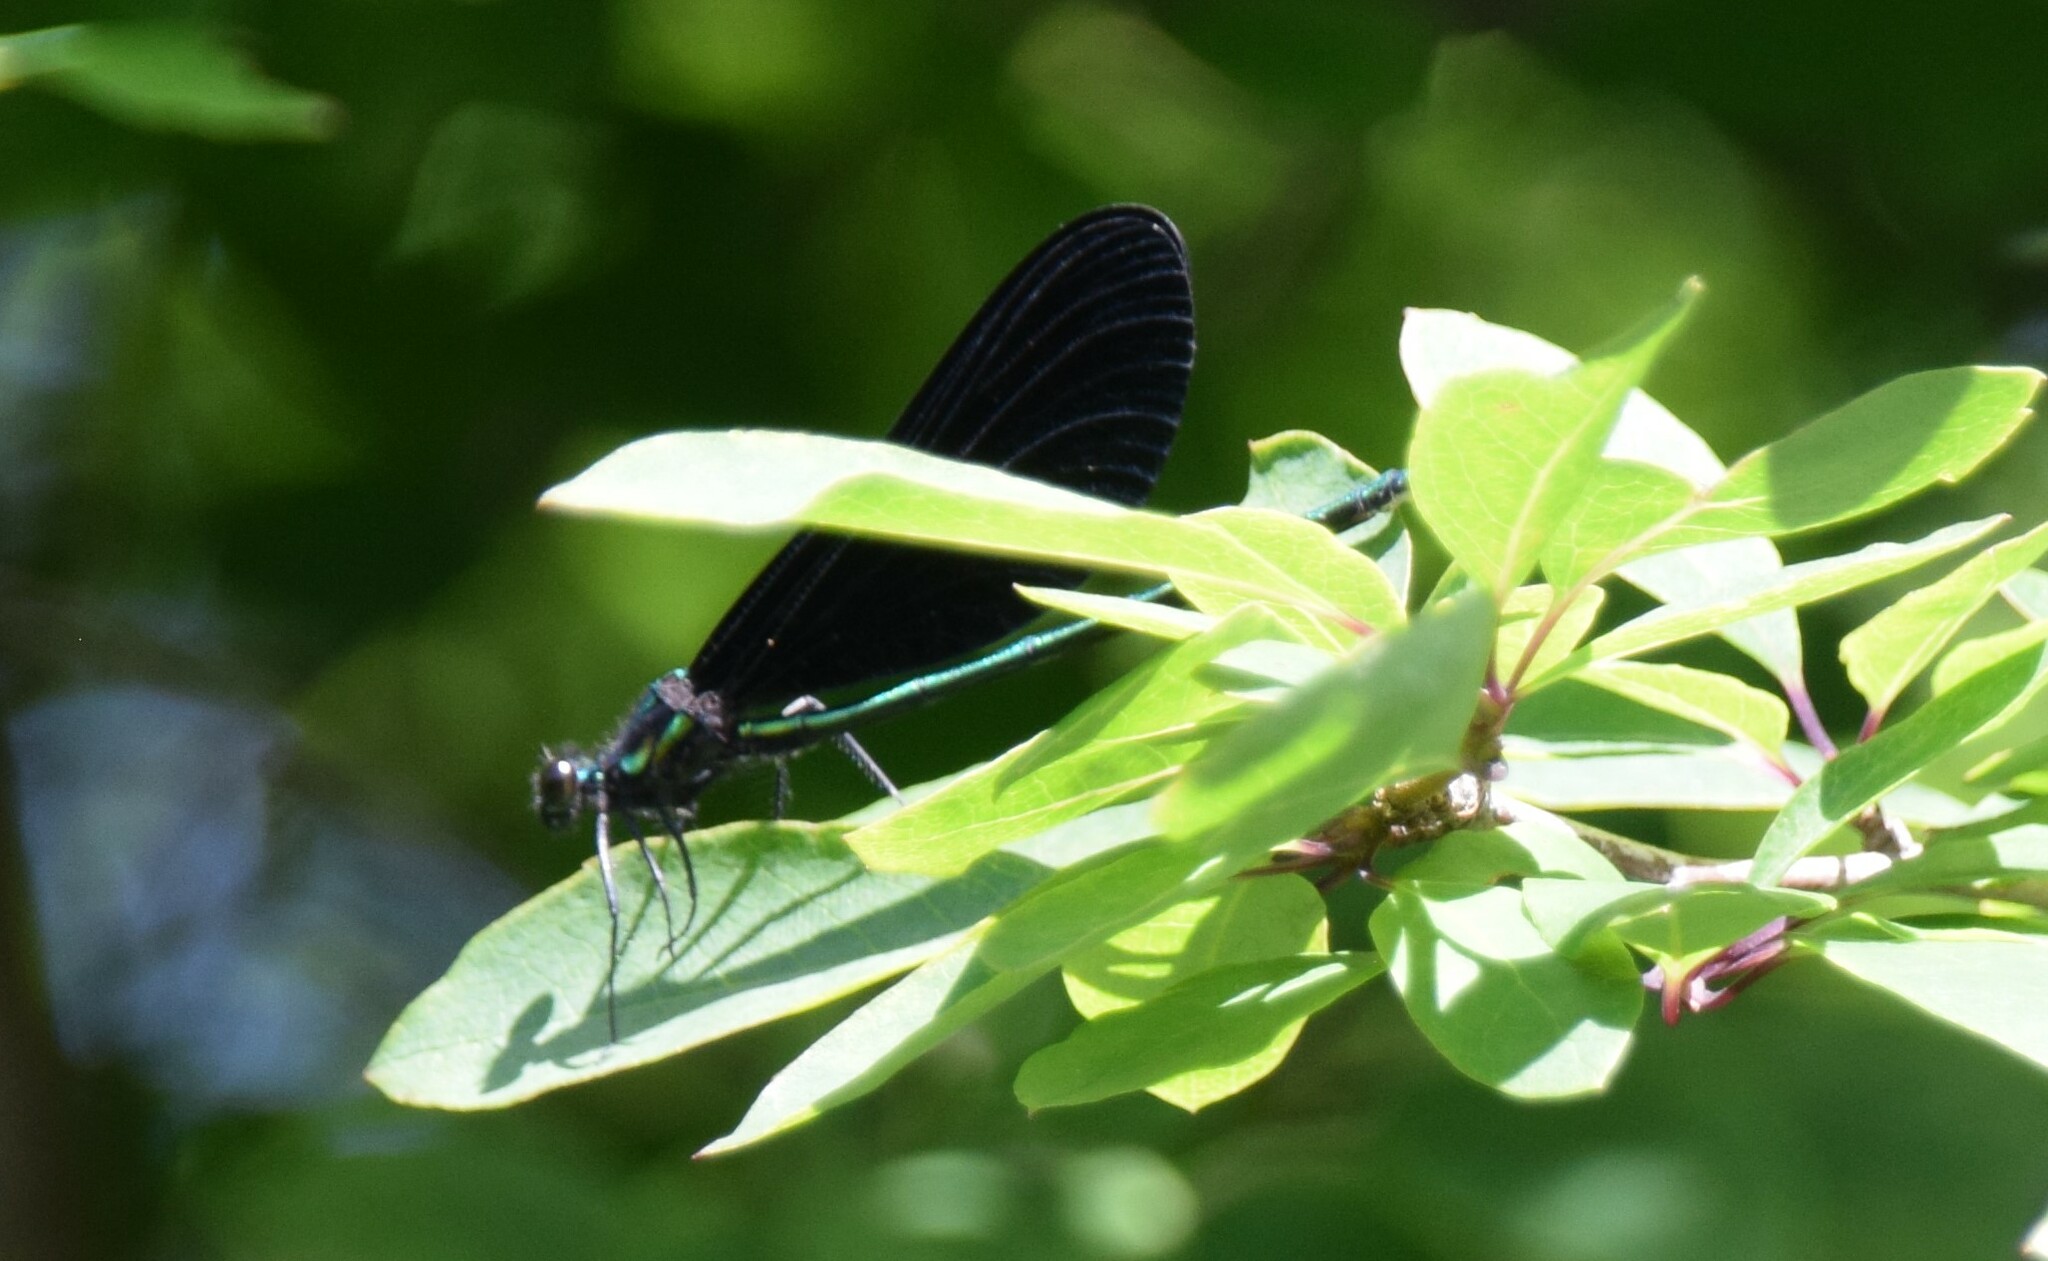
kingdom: Animalia
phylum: Arthropoda
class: Insecta
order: Odonata
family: Calopterygidae
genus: Calopteryx
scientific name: Calopteryx maculata
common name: Ebony jewelwing
